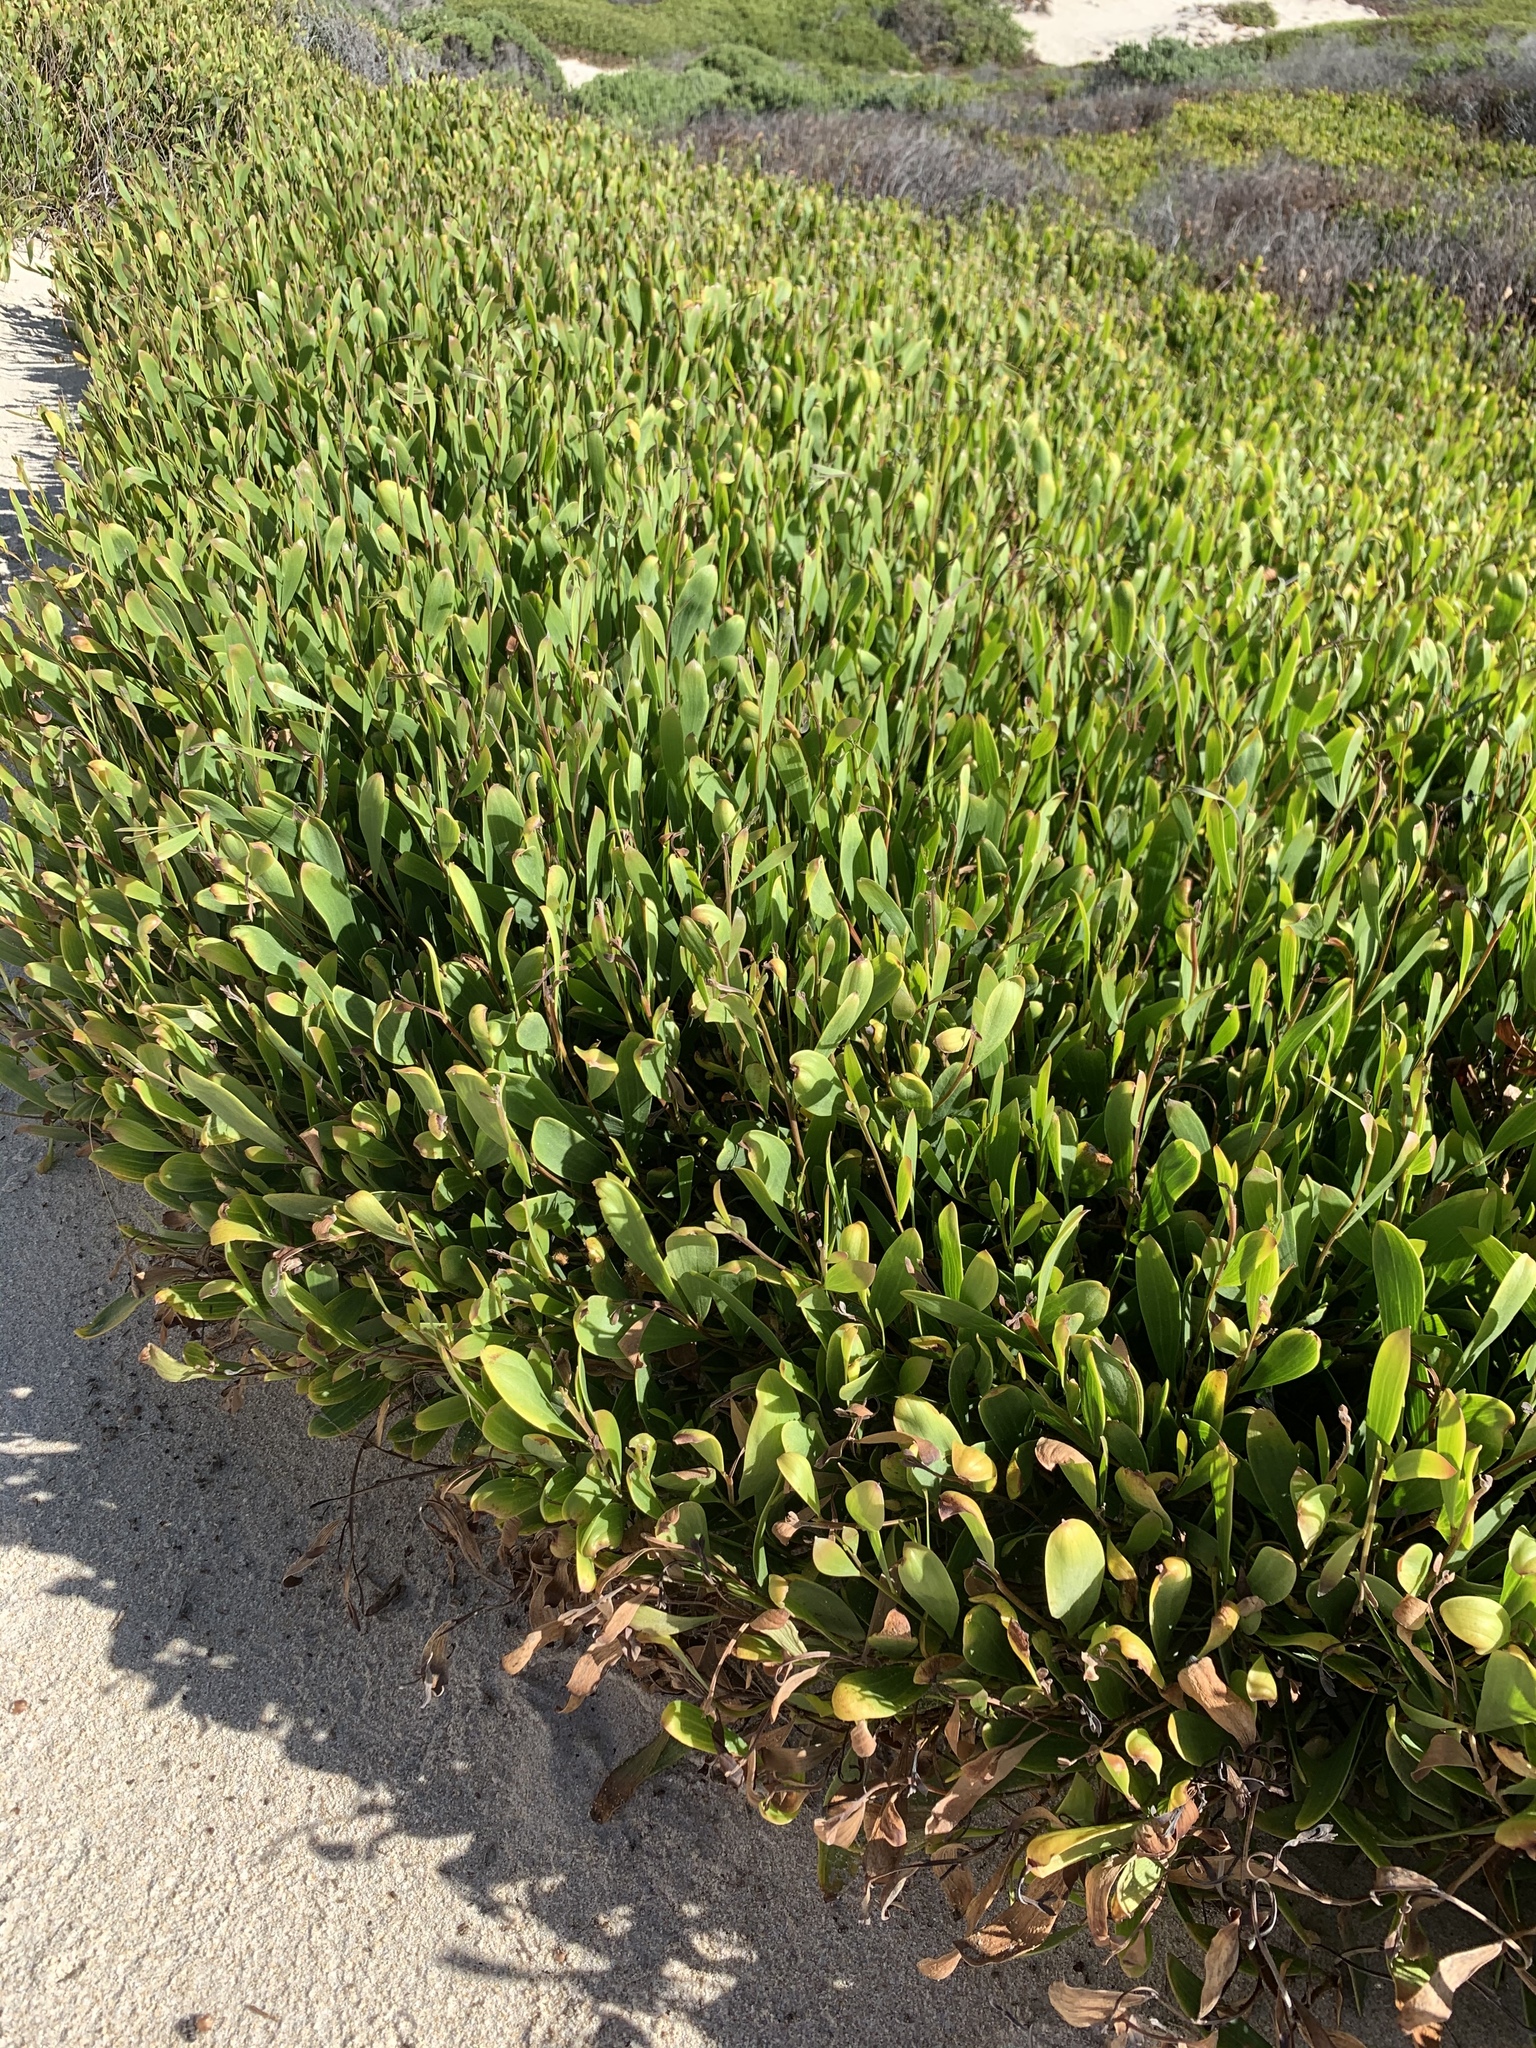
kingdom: Plantae
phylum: Tracheophyta
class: Magnoliopsida
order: Fabales
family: Fabaceae
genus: Acacia
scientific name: Acacia cyclops
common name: Coastal wattle
